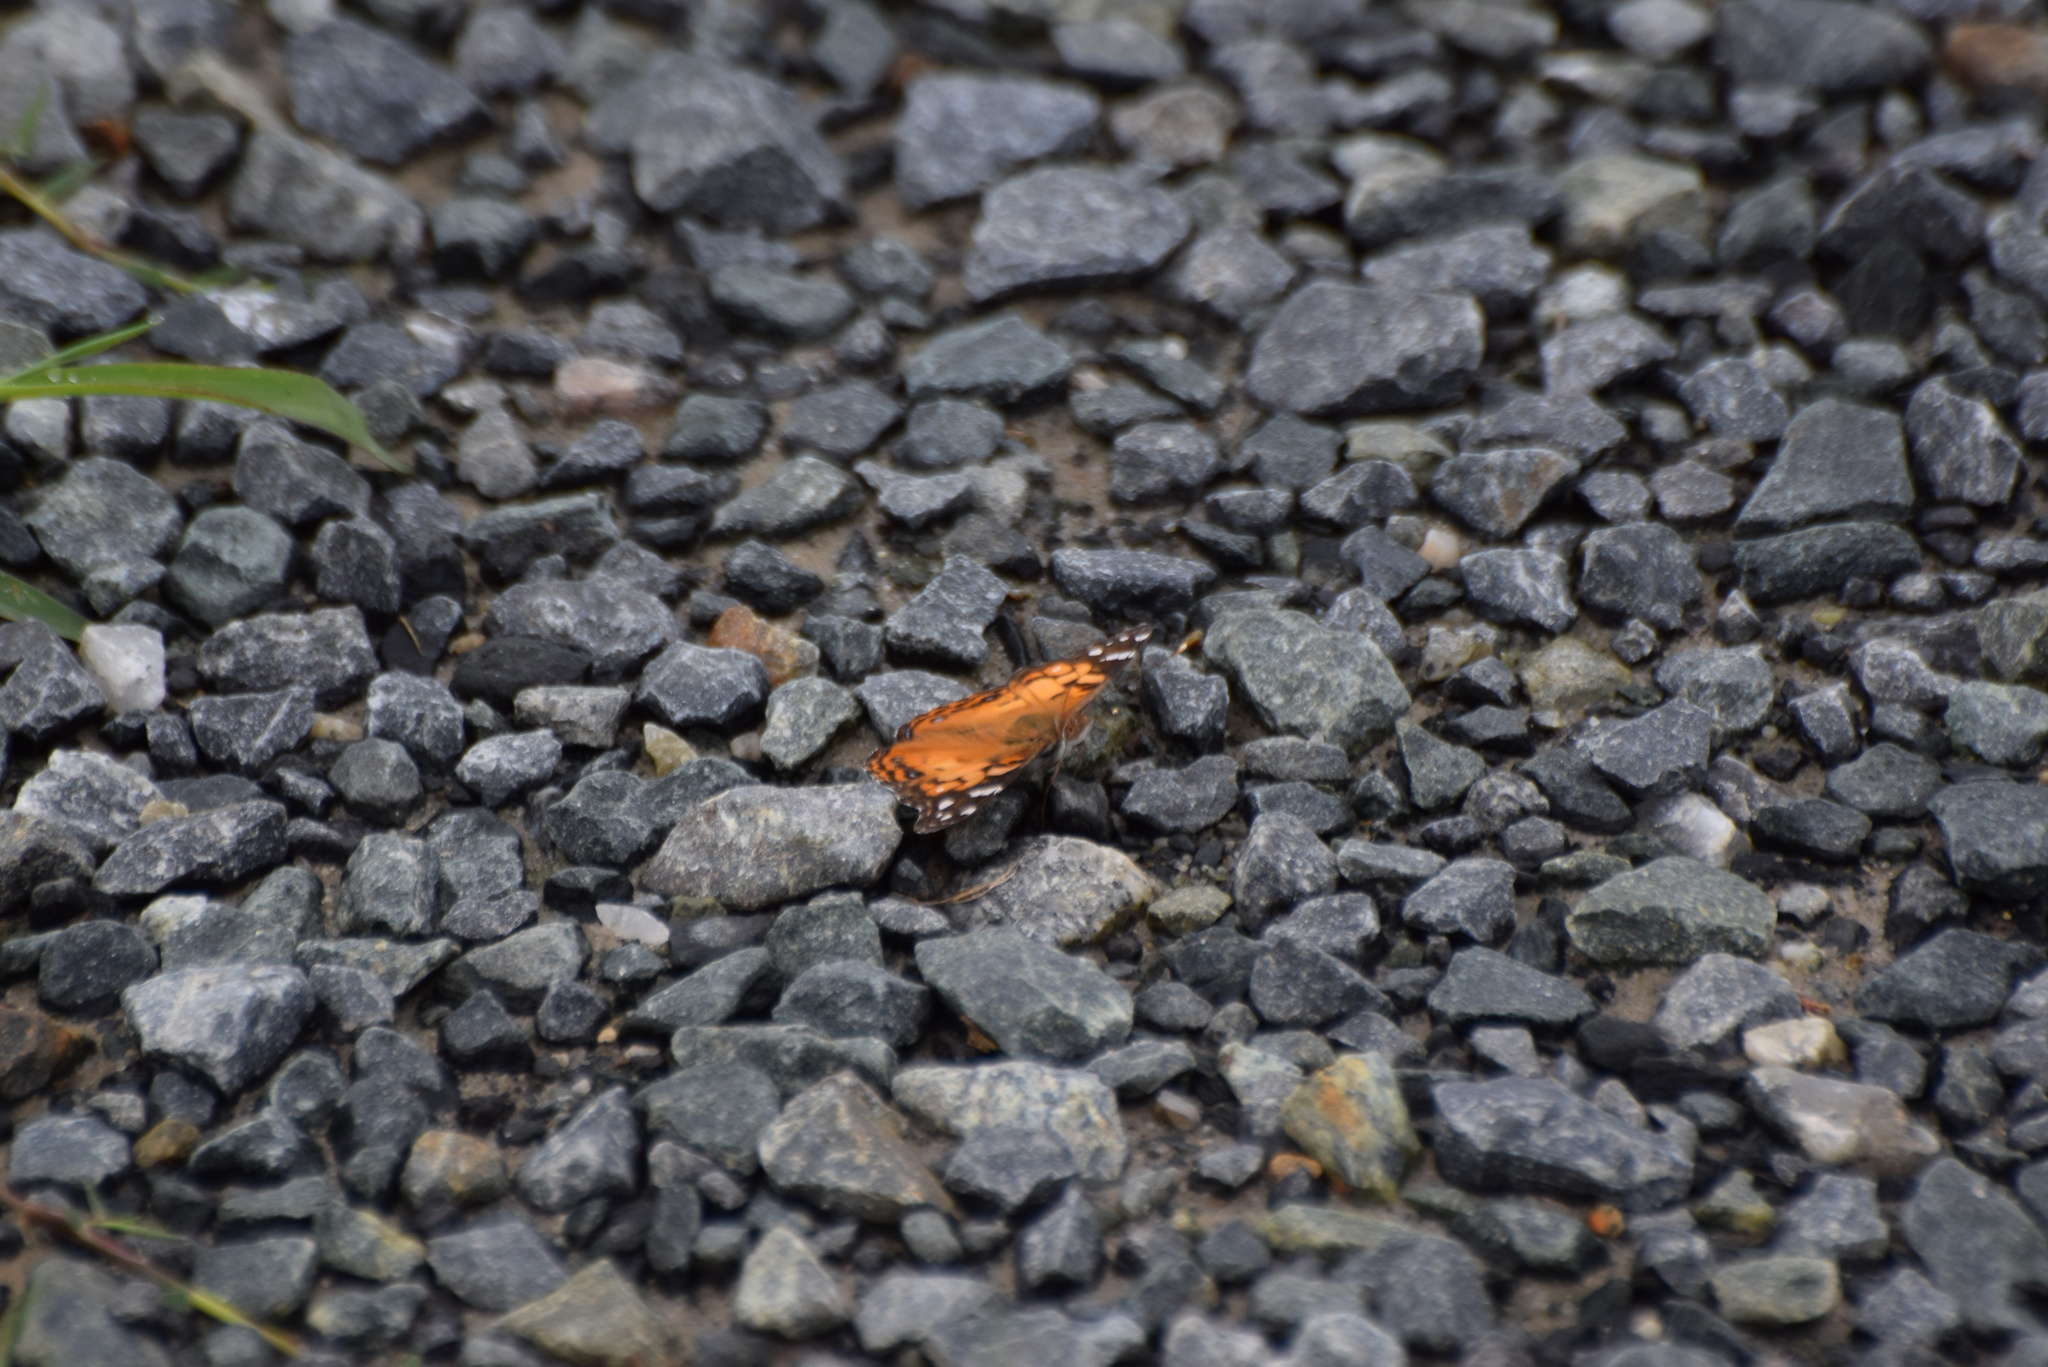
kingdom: Animalia
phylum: Arthropoda
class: Insecta
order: Lepidoptera
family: Nymphalidae
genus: Vanessa
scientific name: Vanessa virginiensis
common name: American lady
